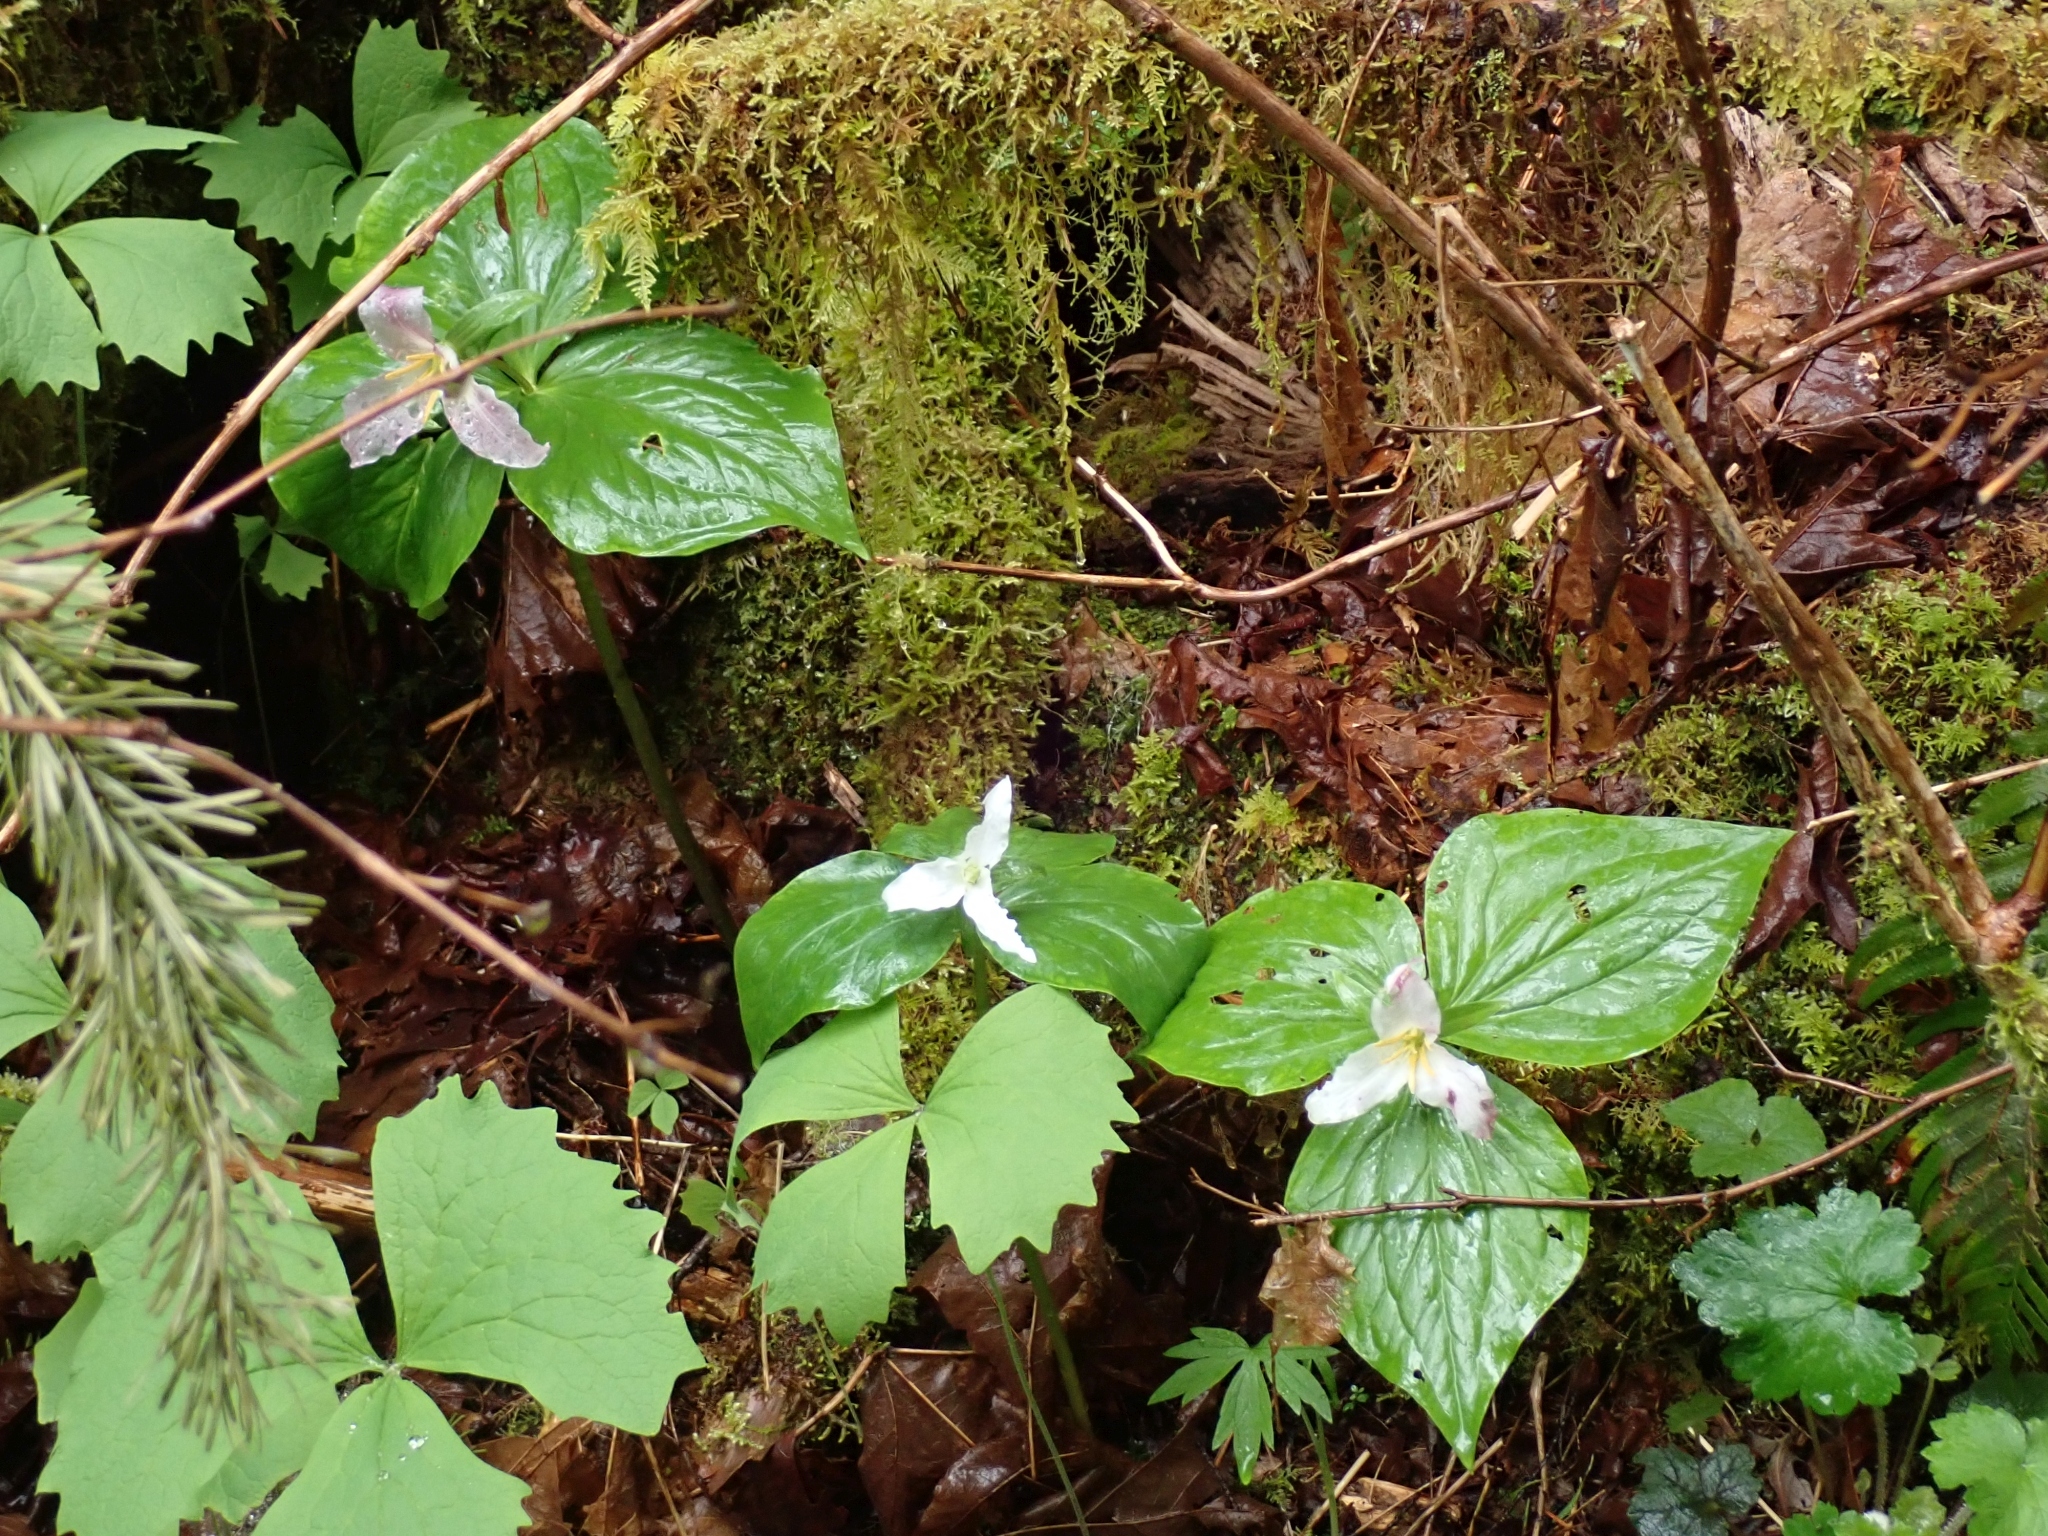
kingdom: Plantae
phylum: Tracheophyta
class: Liliopsida
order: Liliales
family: Melanthiaceae
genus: Trillium
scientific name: Trillium ovatum
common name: Pacific trillium
